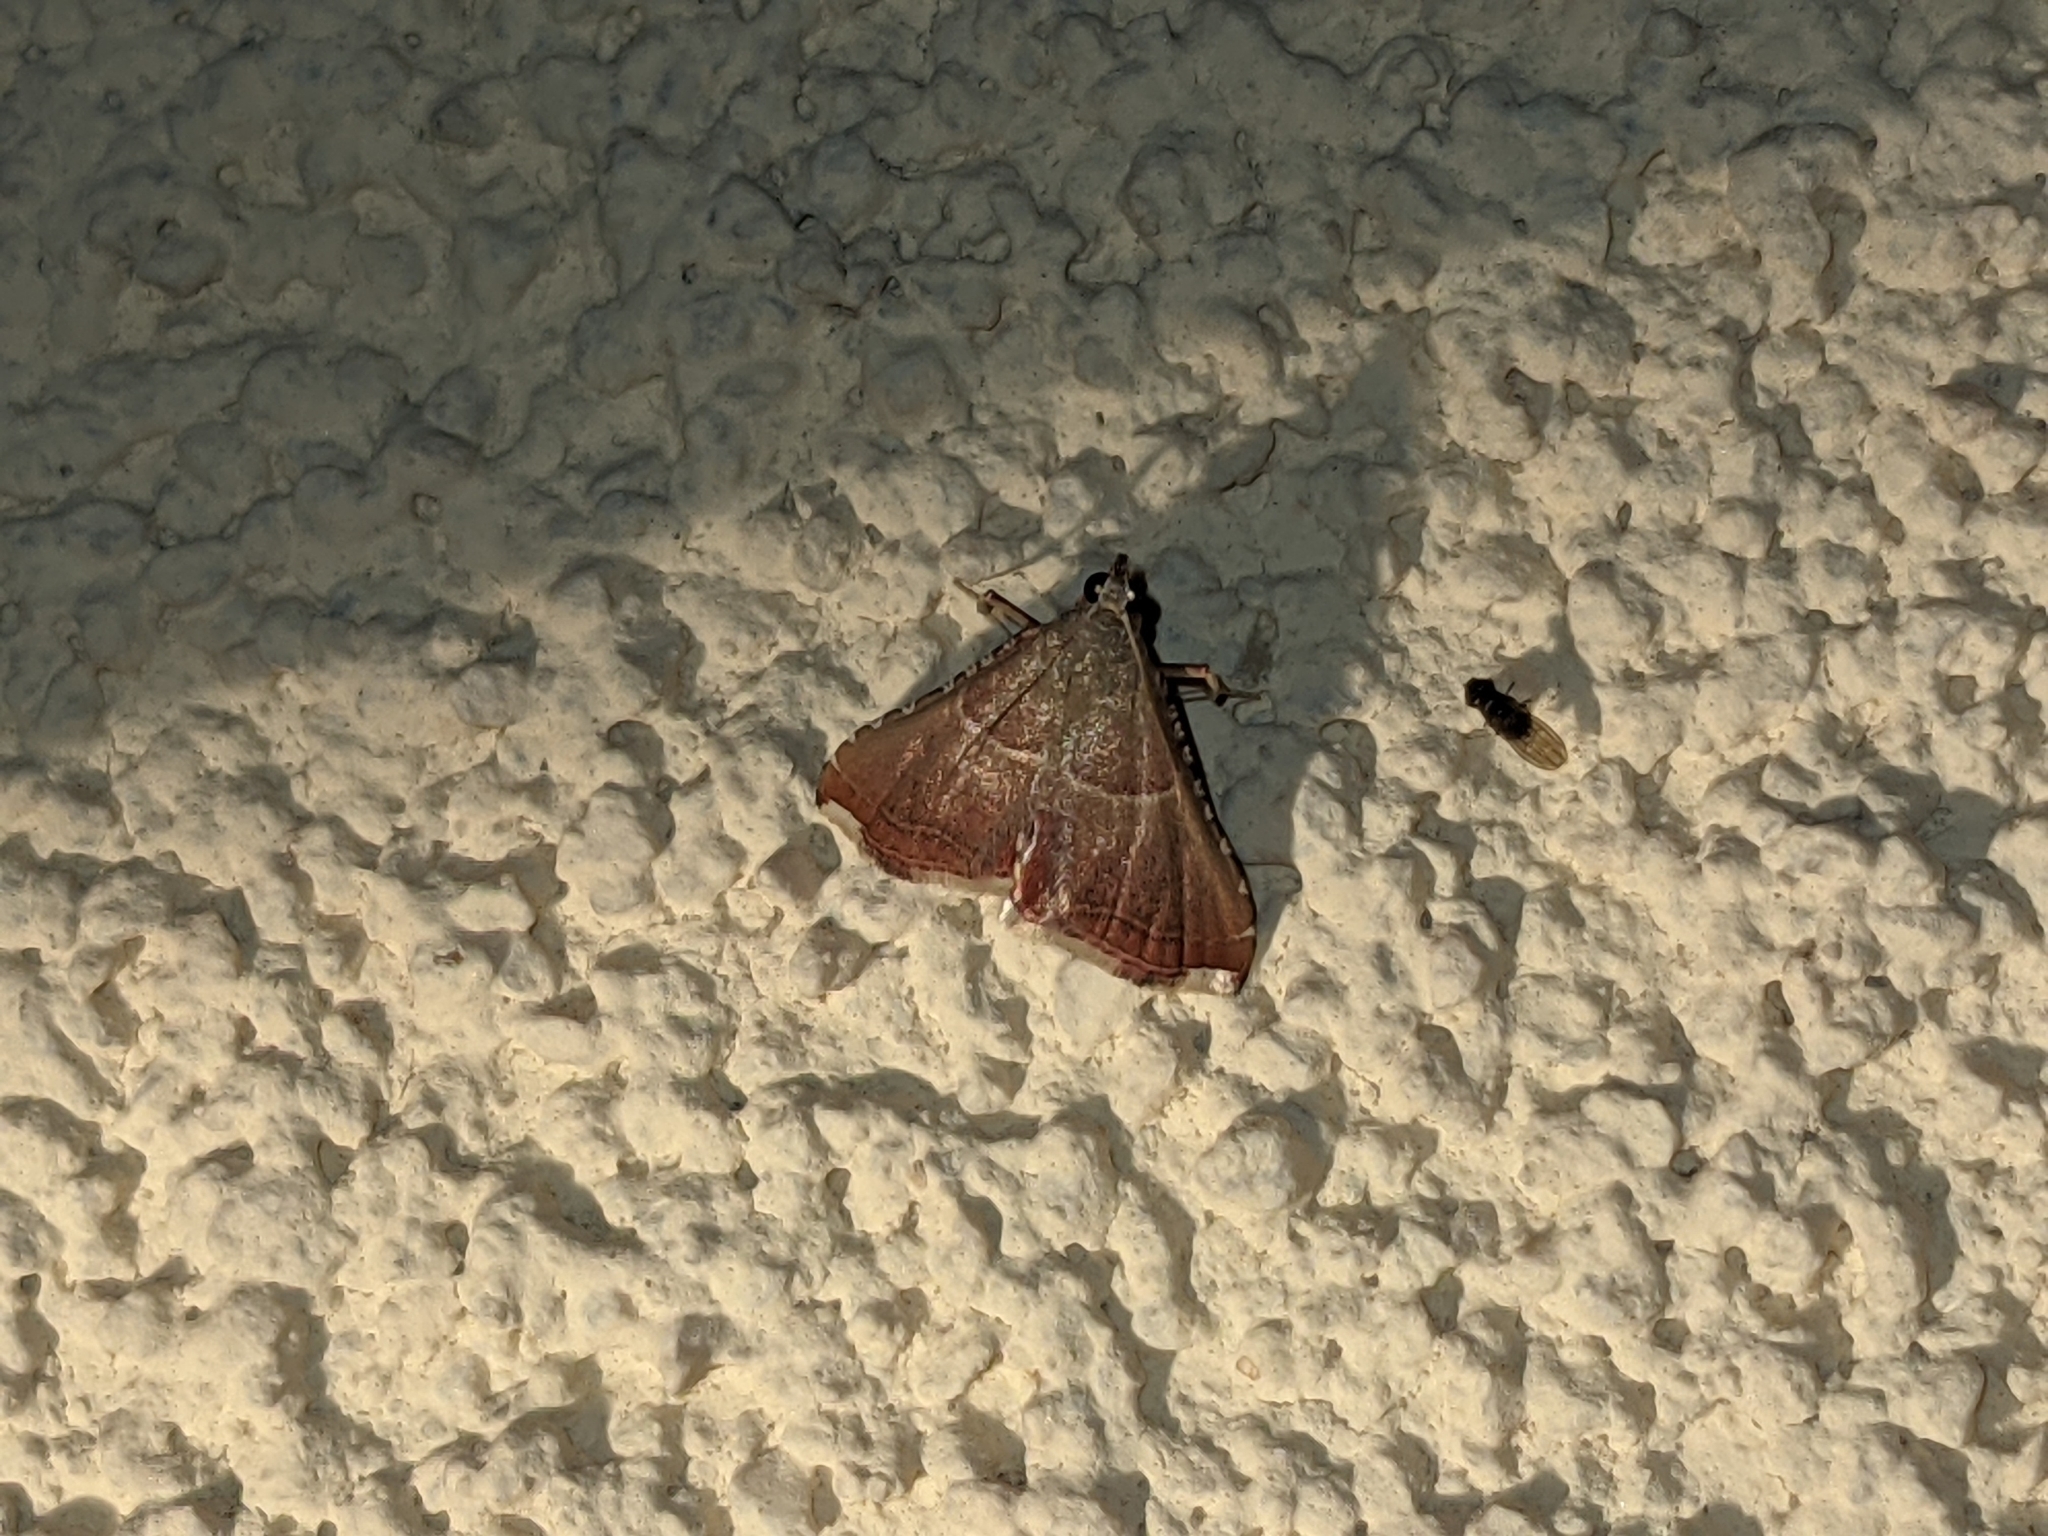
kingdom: Animalia
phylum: Arthropoda
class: Insecta
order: Lepidoptera
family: Pyralidae
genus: Endotricha
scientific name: Endotricha flammealis
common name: Rosy tabby
